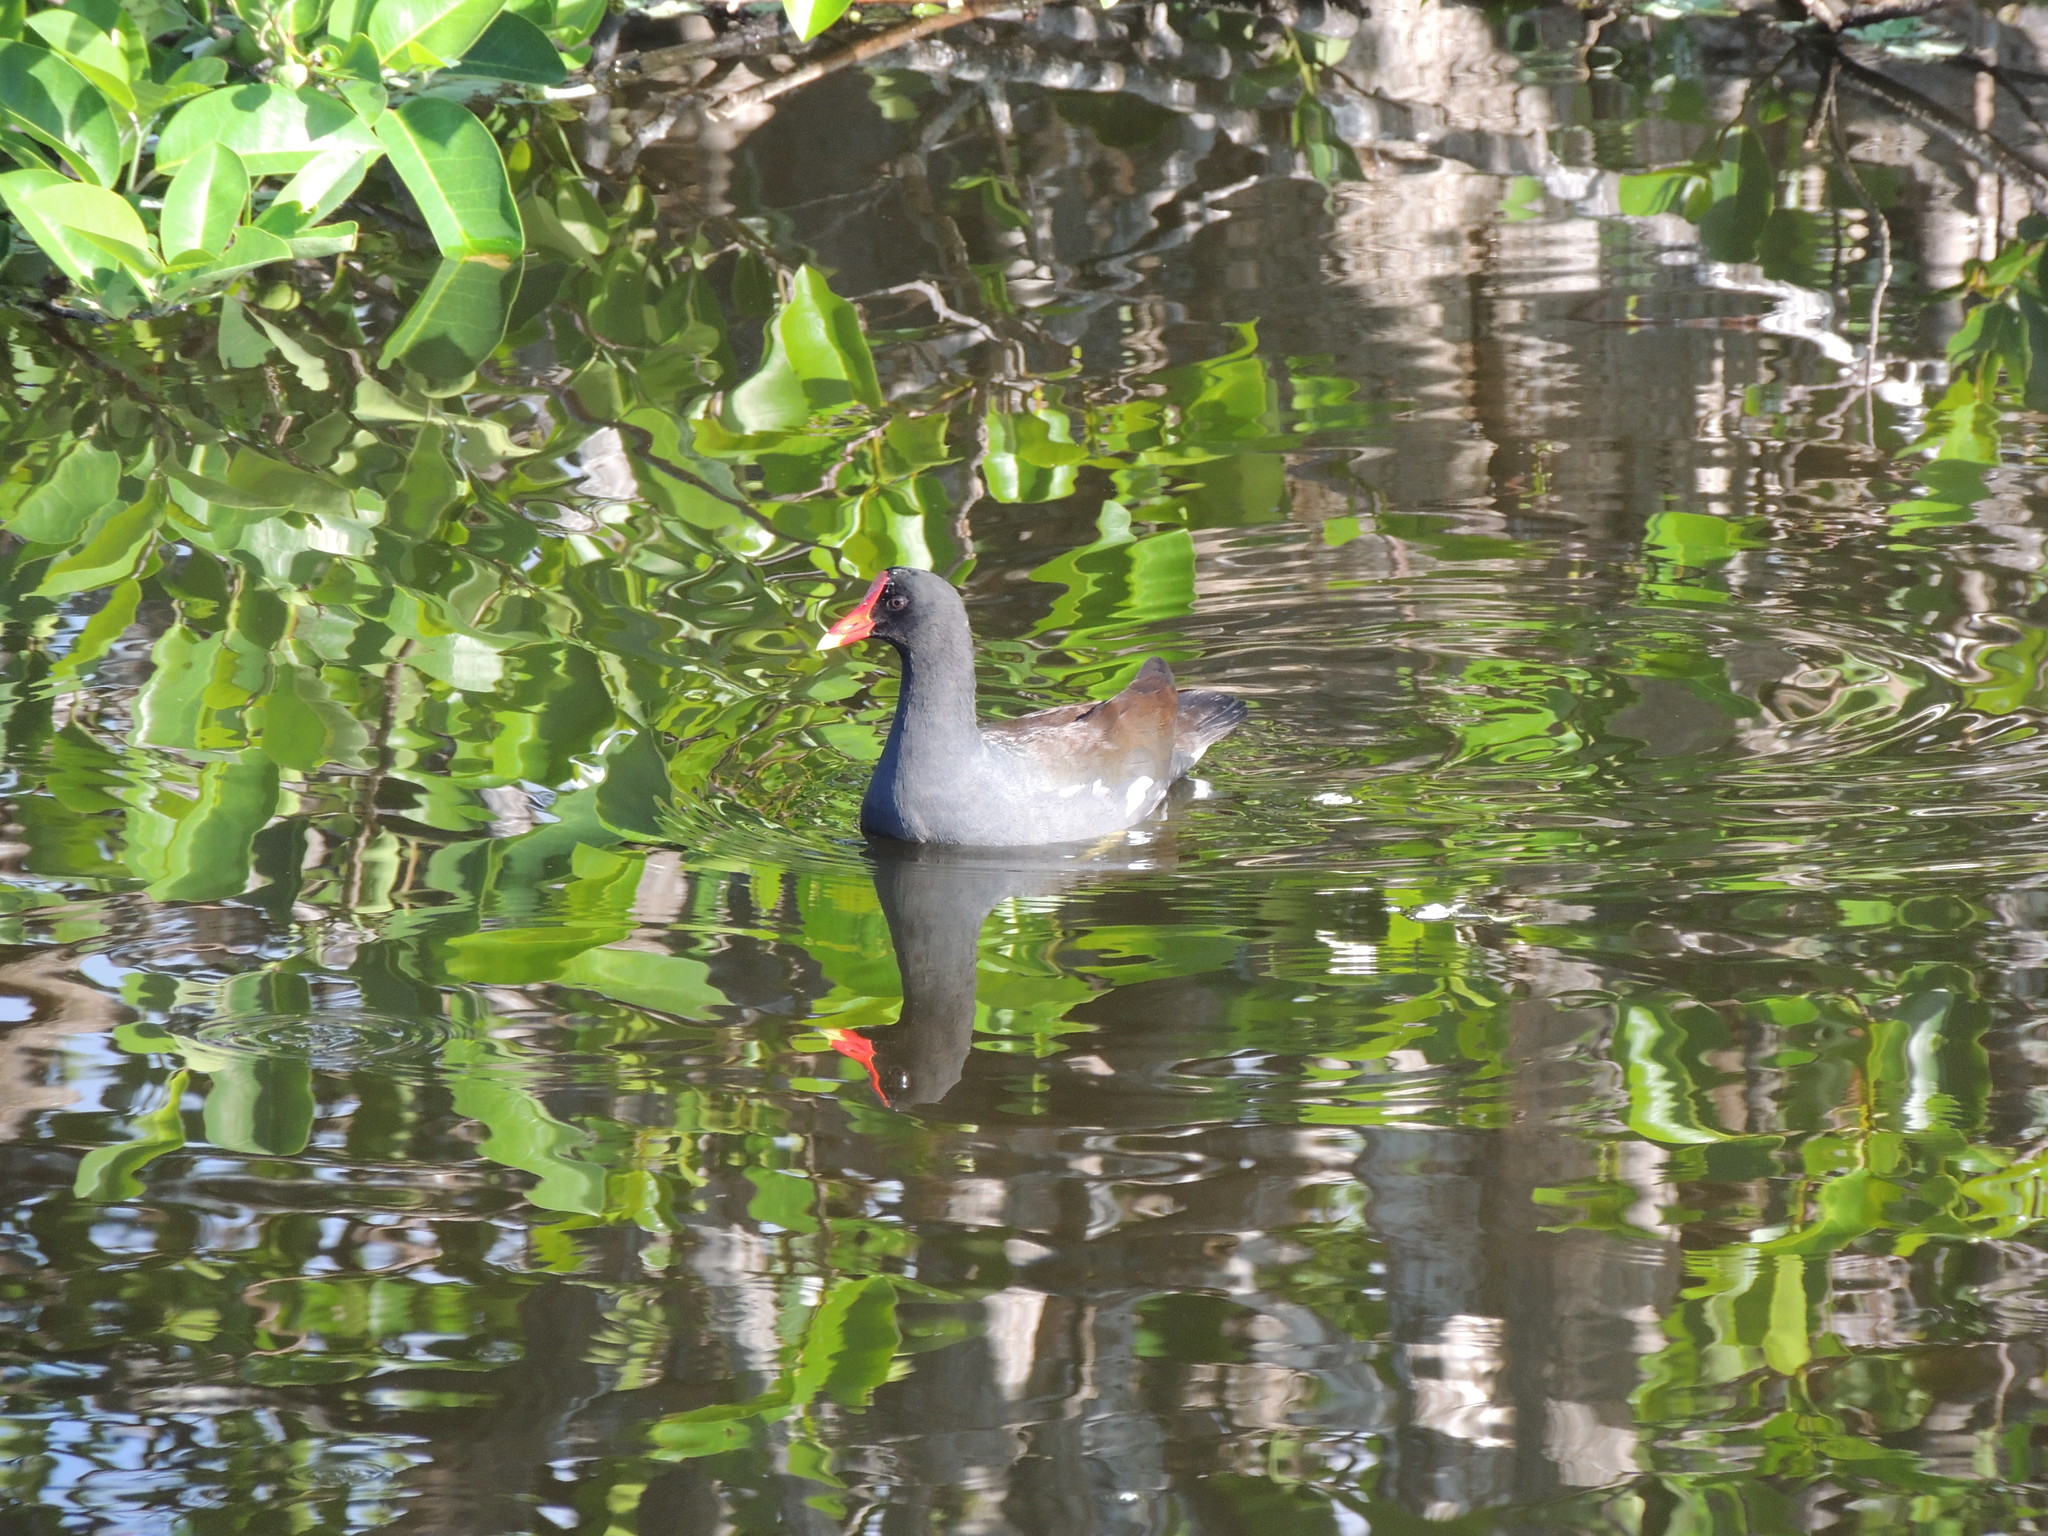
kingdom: Animalia
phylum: Chordata
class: Aves
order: Gruiformes
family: Rallidae
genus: Gallinula
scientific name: Gallinula chloropus
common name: Common moorhen
